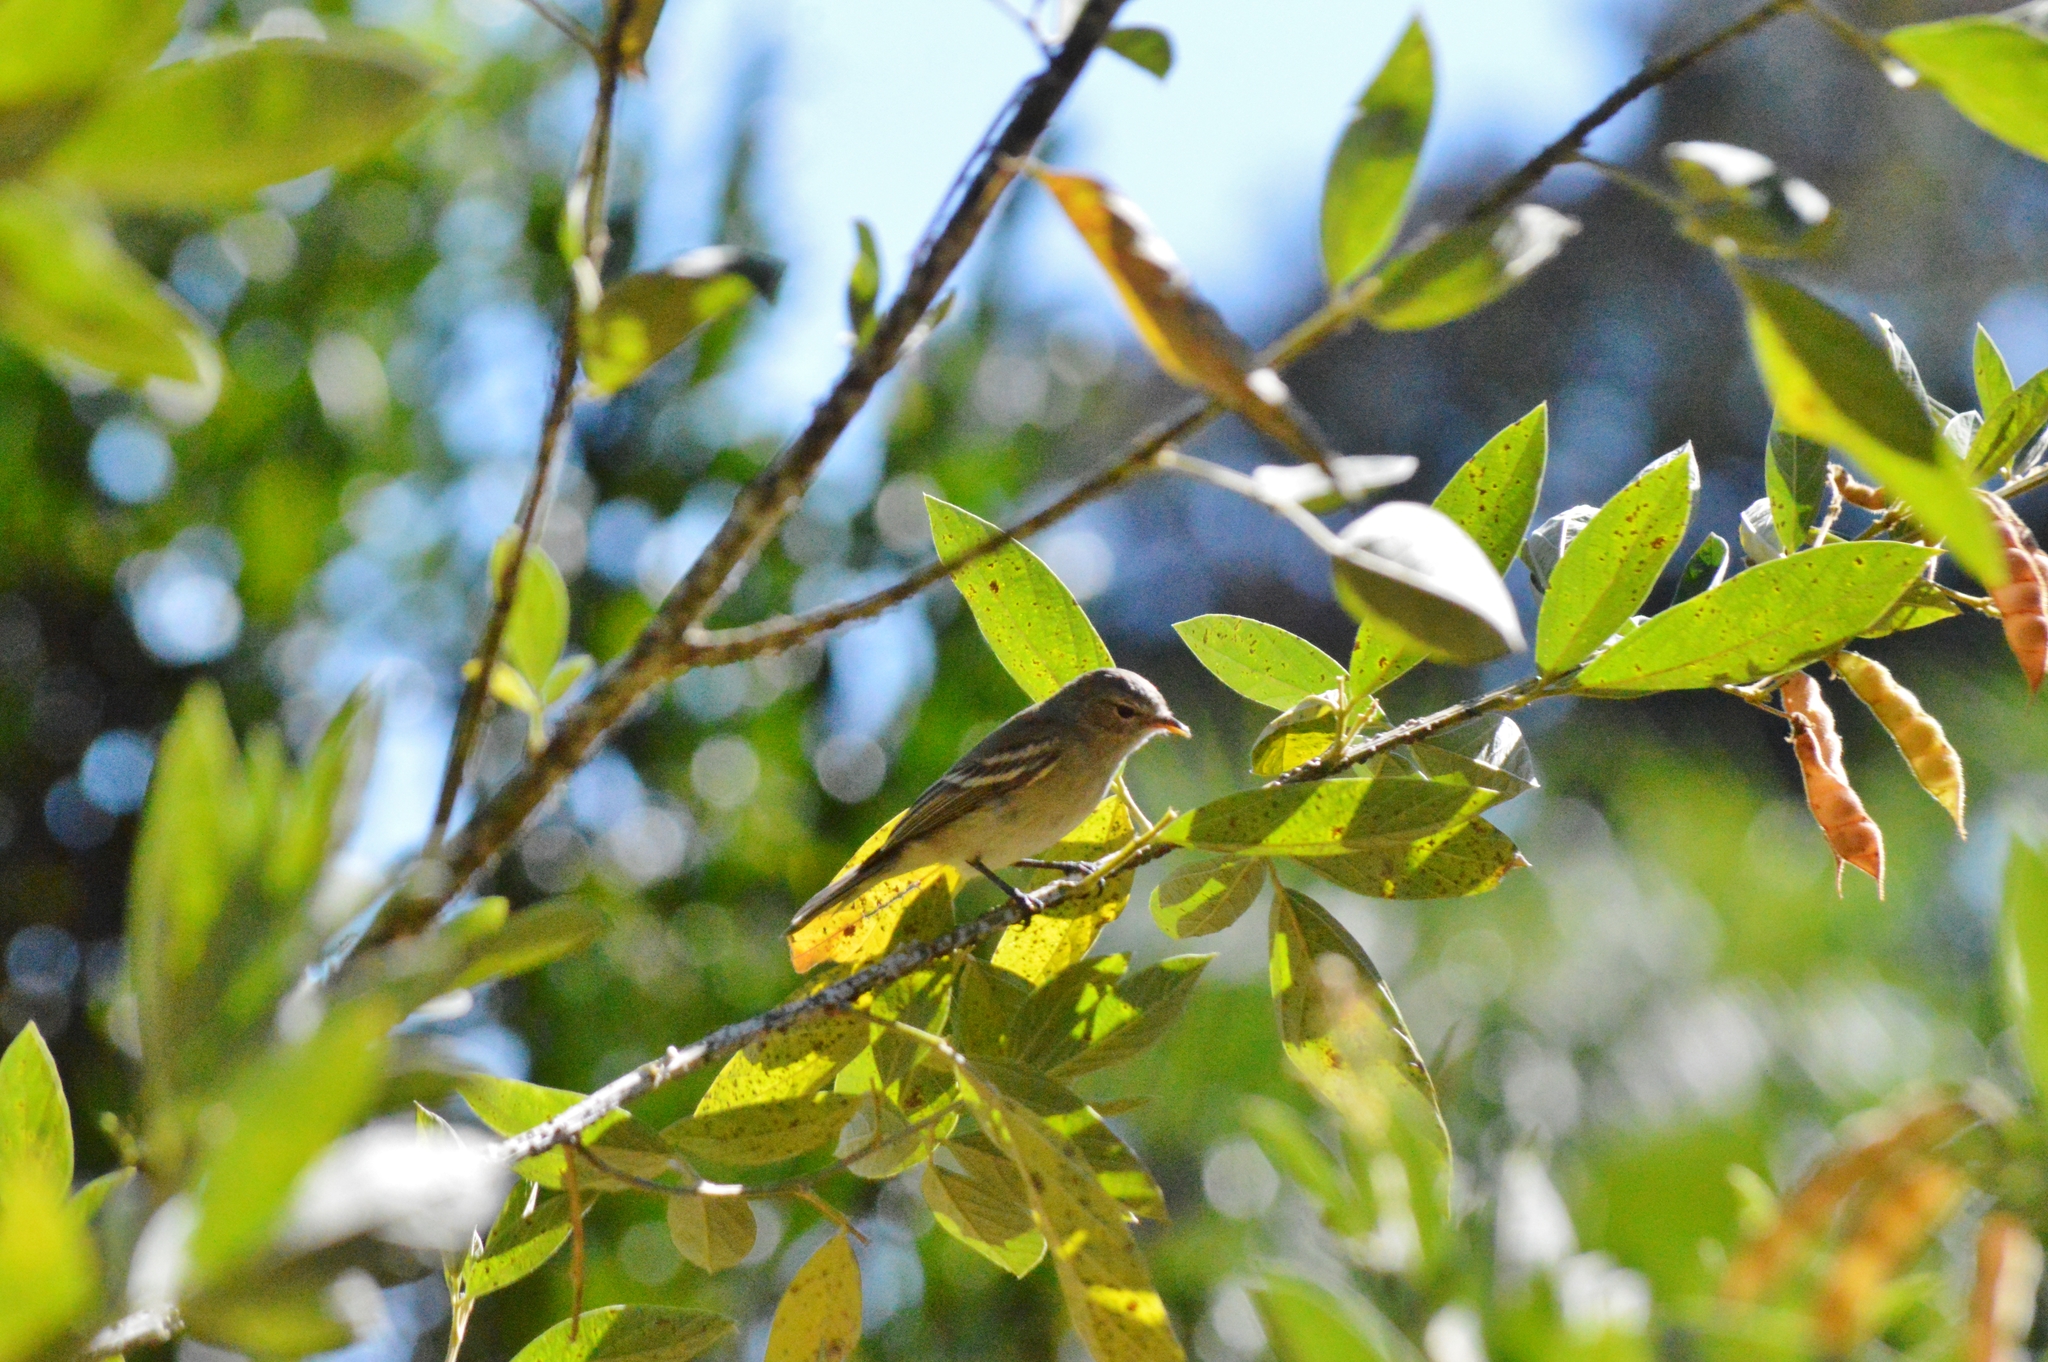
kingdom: Animalia
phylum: Chordata
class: Aves
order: Passeriformes
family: Tyrannidae
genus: Camptostoma
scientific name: Camptostoma obsoletum
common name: Southern beardless-tyrannulet
